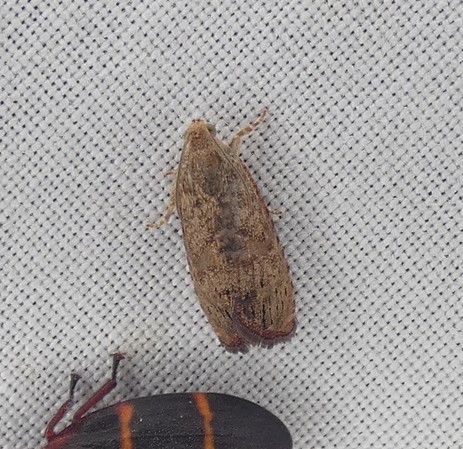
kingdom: Animalia
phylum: Arthropoda
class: Insecta
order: Lepidoptera
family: Tortricidae
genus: Cydia
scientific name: Cydia latiferreana
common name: Filbertworm moth
